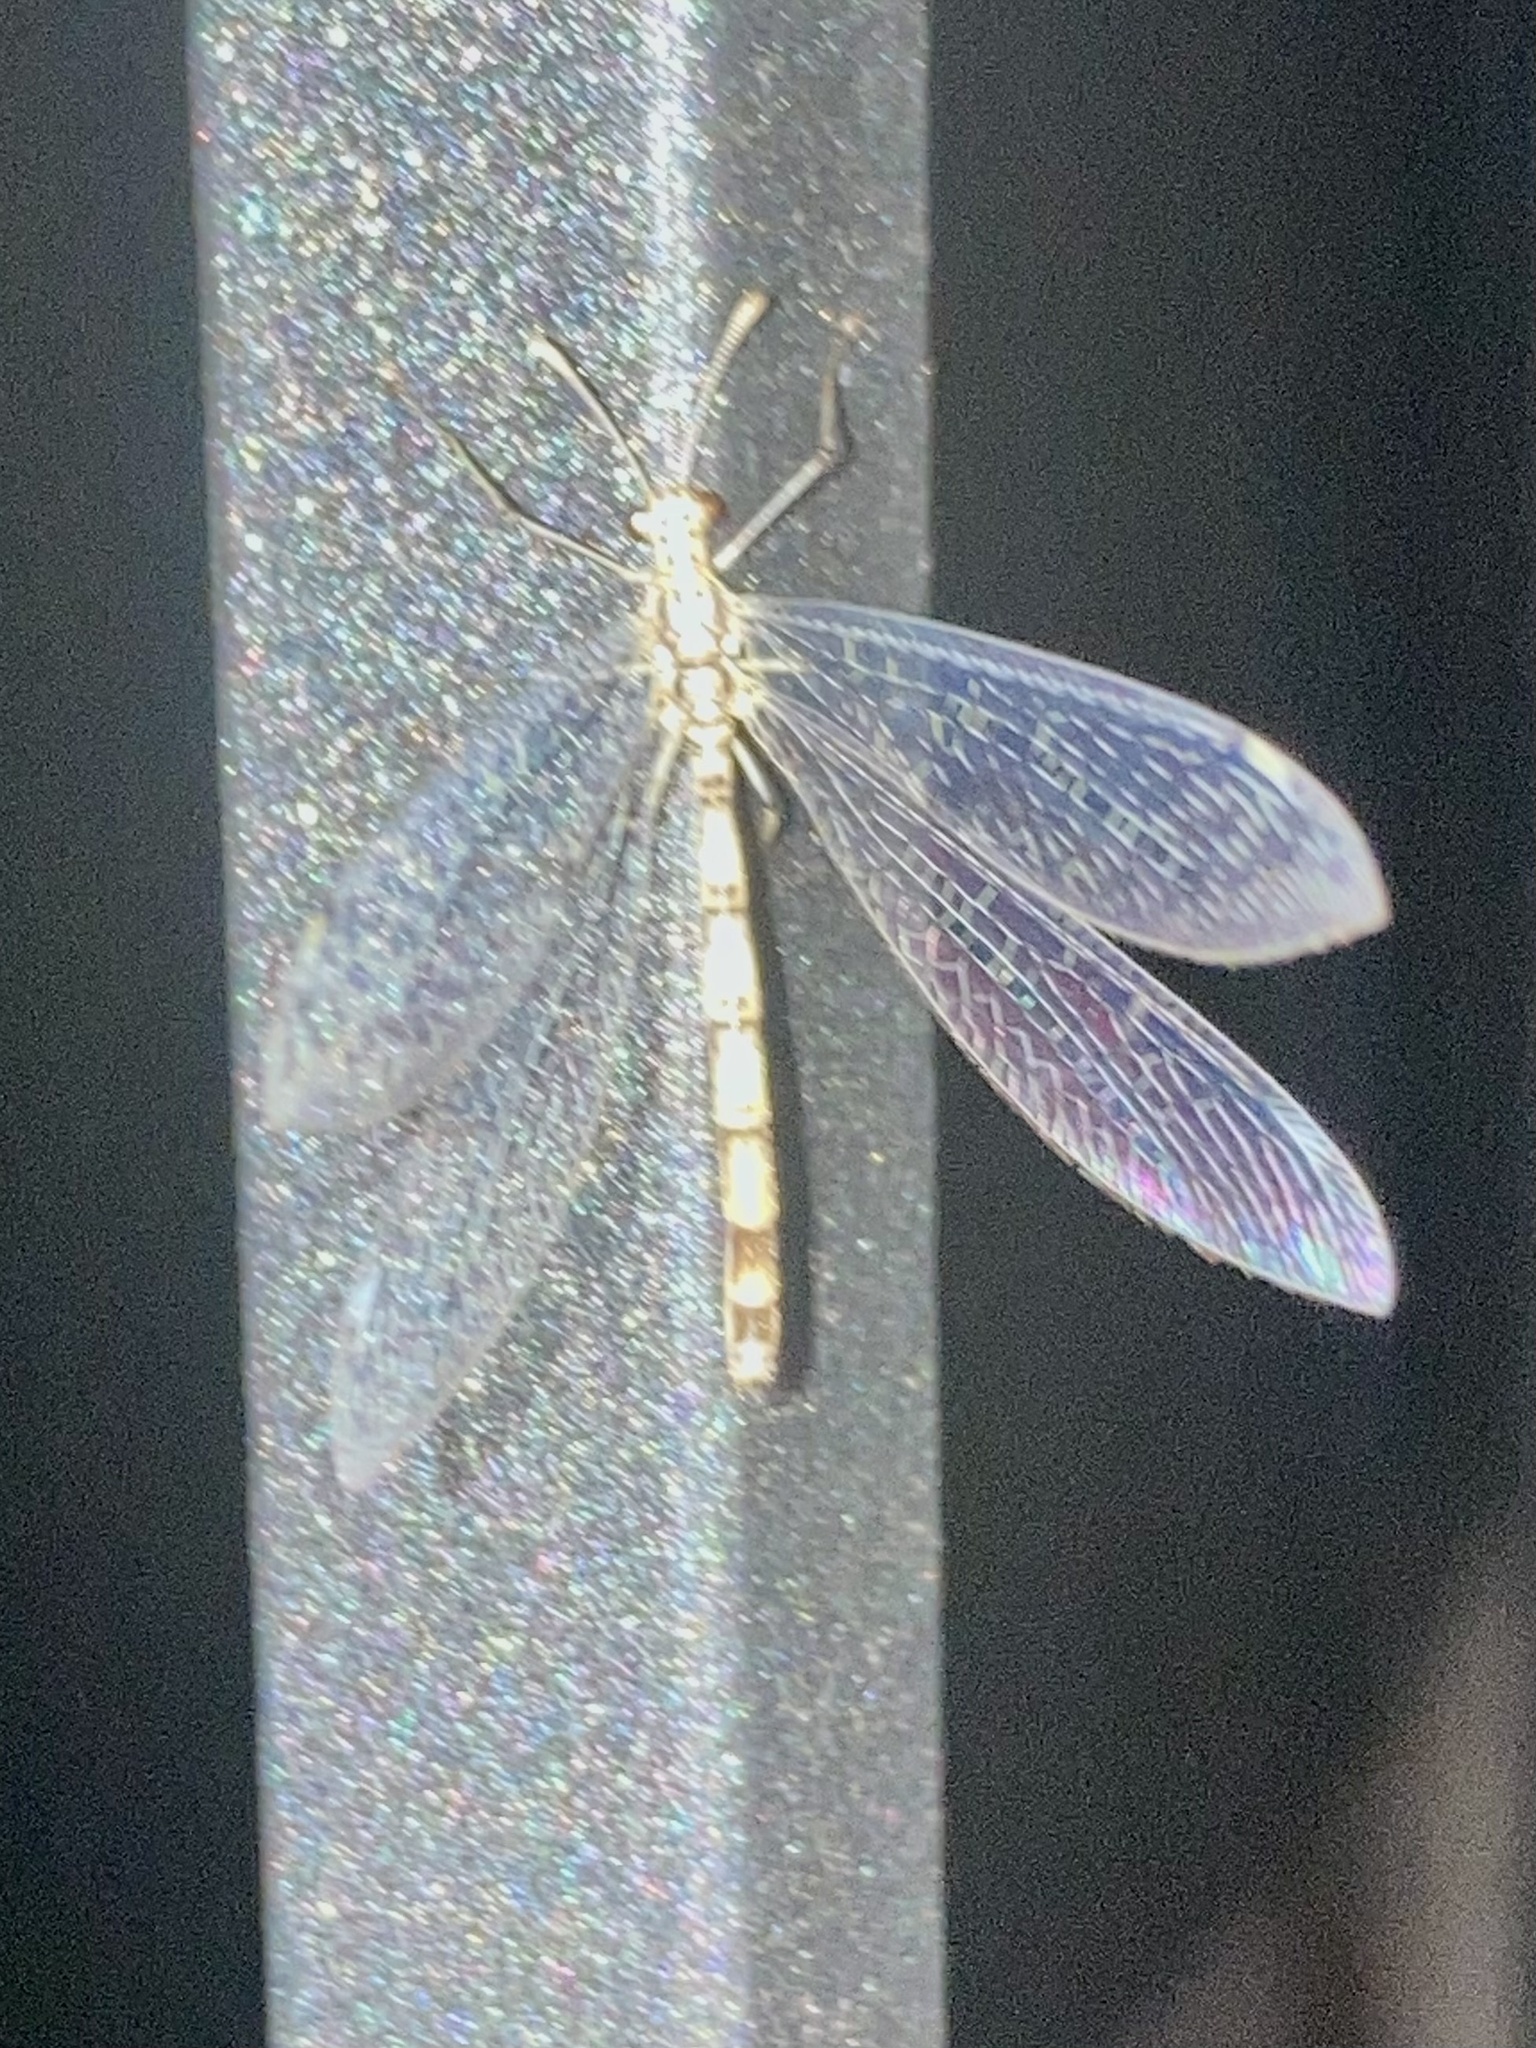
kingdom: Animalia
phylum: Arthropoda
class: Insecta
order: Neuroptera
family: Myrmeleontidae
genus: Gymnocnemia
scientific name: Gymnocnemia variegata
